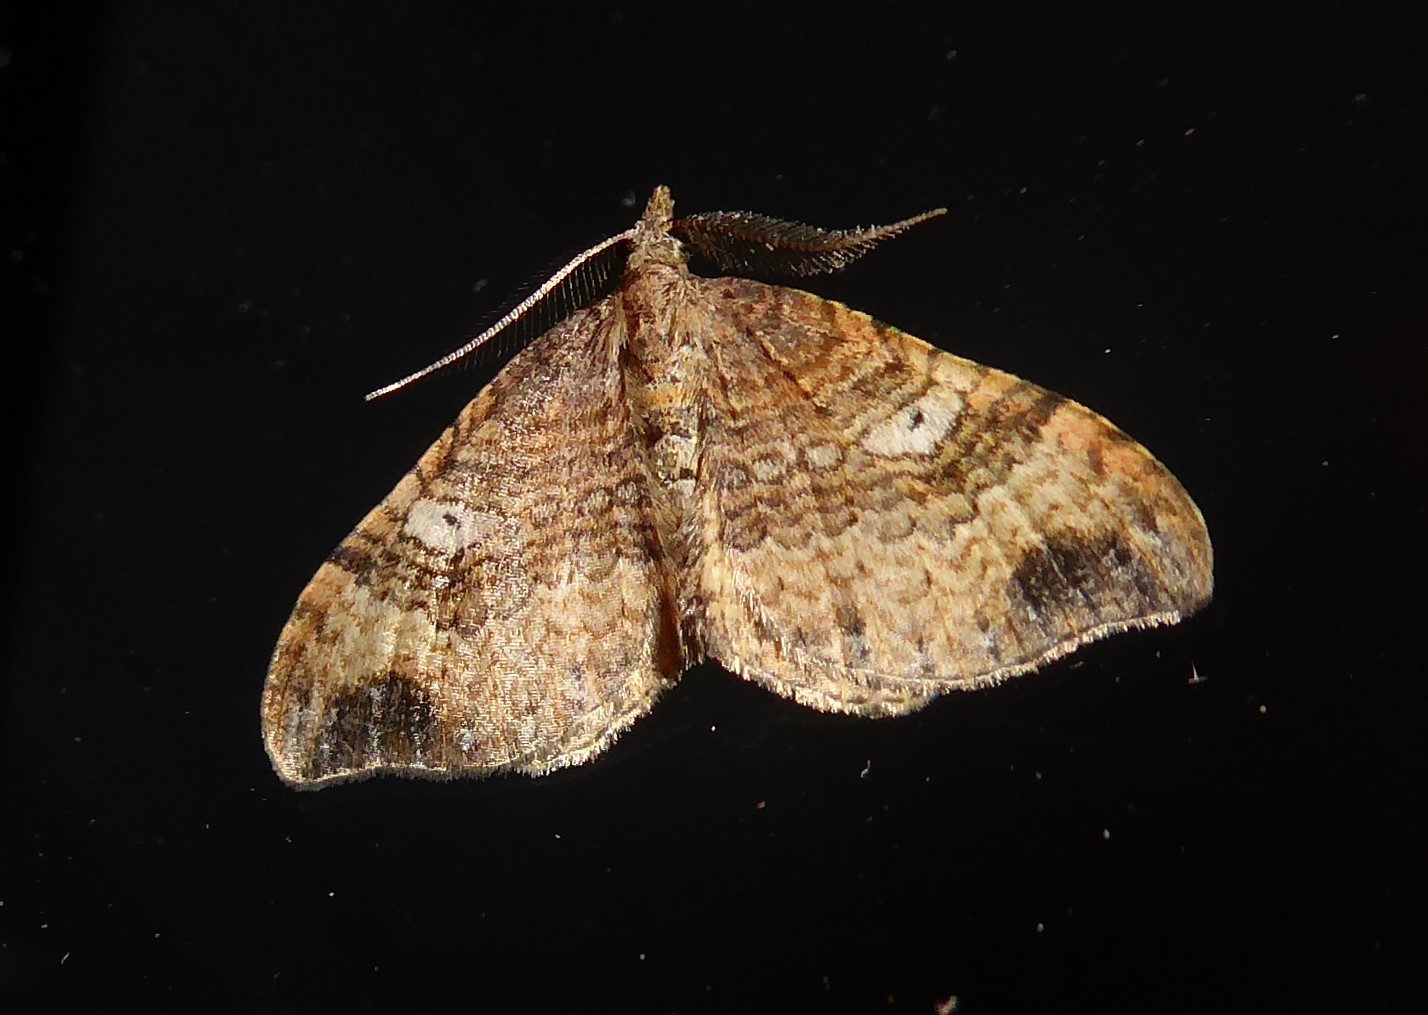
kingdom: Animalia
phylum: Arthropoda
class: Insecta
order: Lepidoptera
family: Geometridae
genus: Homodotis
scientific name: Homodotis megaspilata
